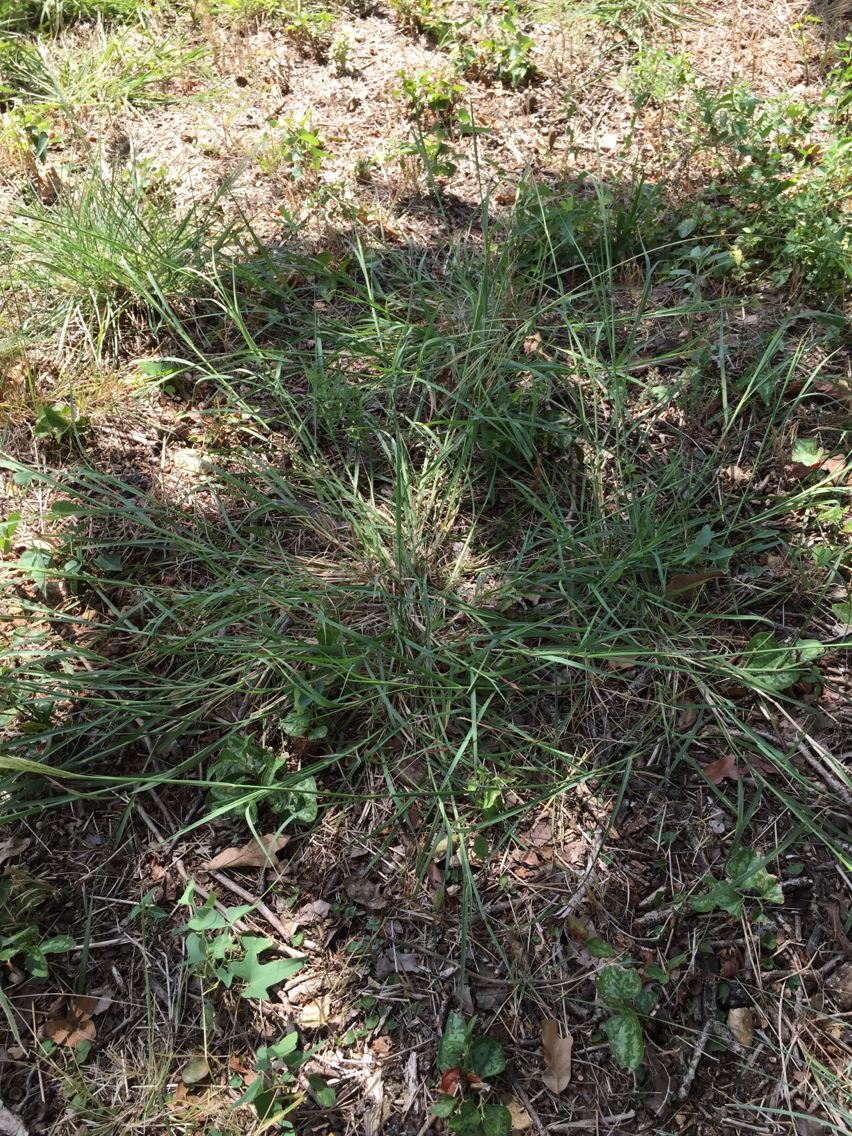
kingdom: Plantae
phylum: Tracheophyta
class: Liliopsida
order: Poales
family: Poaceae
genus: Bothriochloa
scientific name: Bothriochloa ischaemum
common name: Yellow bluestem
